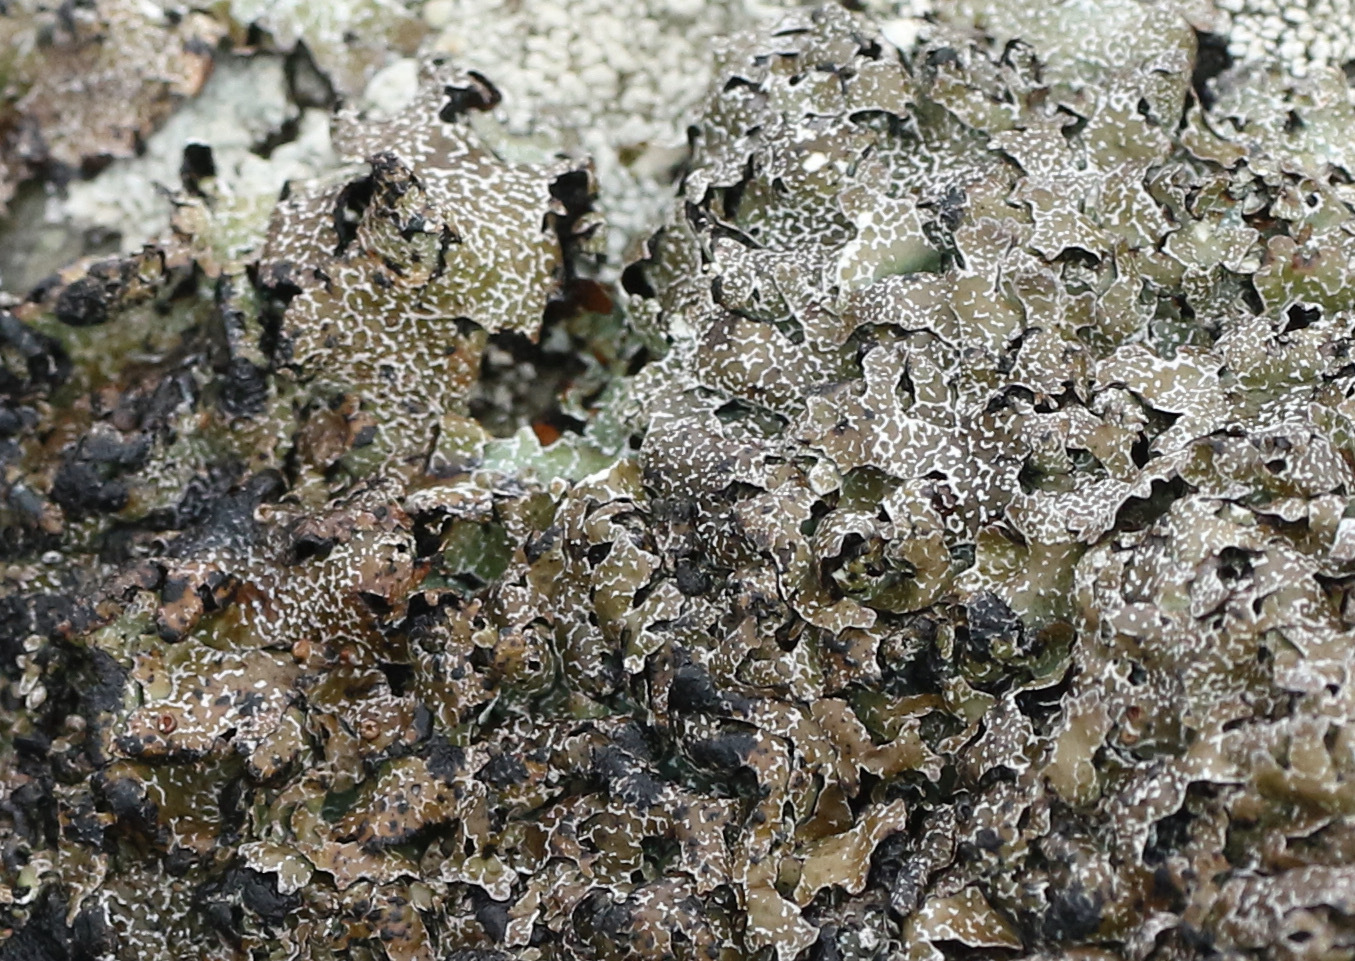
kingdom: Fungi
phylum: Ascomycota
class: Lecanoromycetes
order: Lecanorales
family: Parmeliaceae
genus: Parmelia
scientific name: Parmelia omphalodes
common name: Smoky crottle
